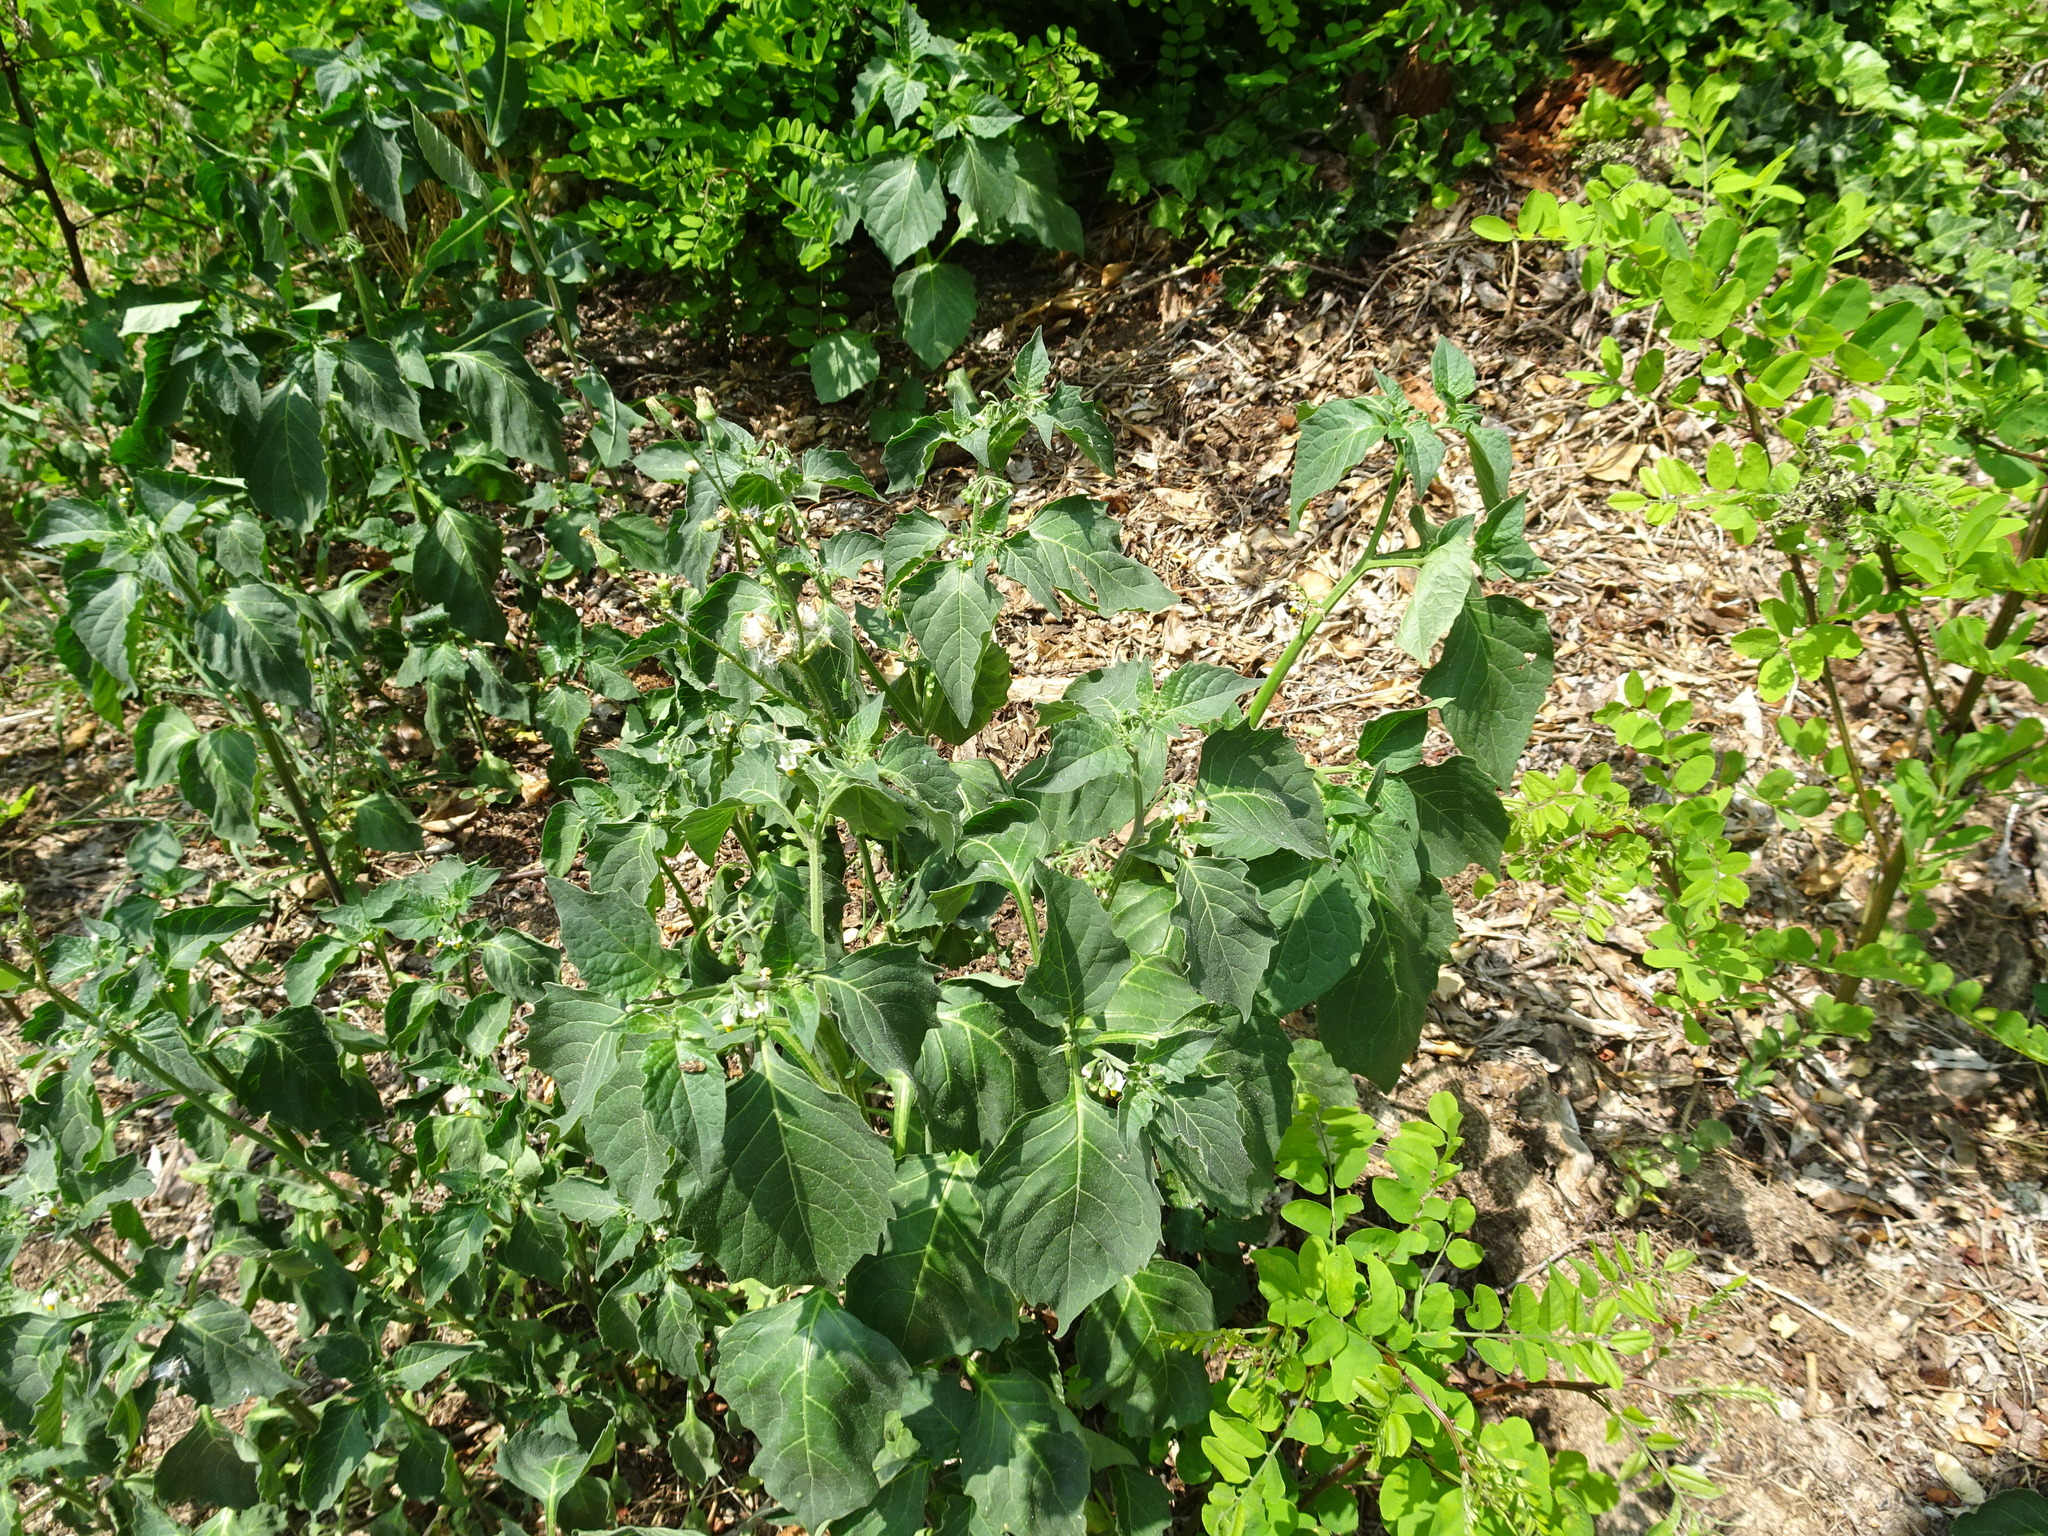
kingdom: Plantae
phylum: Tracheophyta
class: Magnoliopsida
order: Solanales
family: Solanaceae
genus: Solanum
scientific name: Solanum nigrum
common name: Black nightshade
